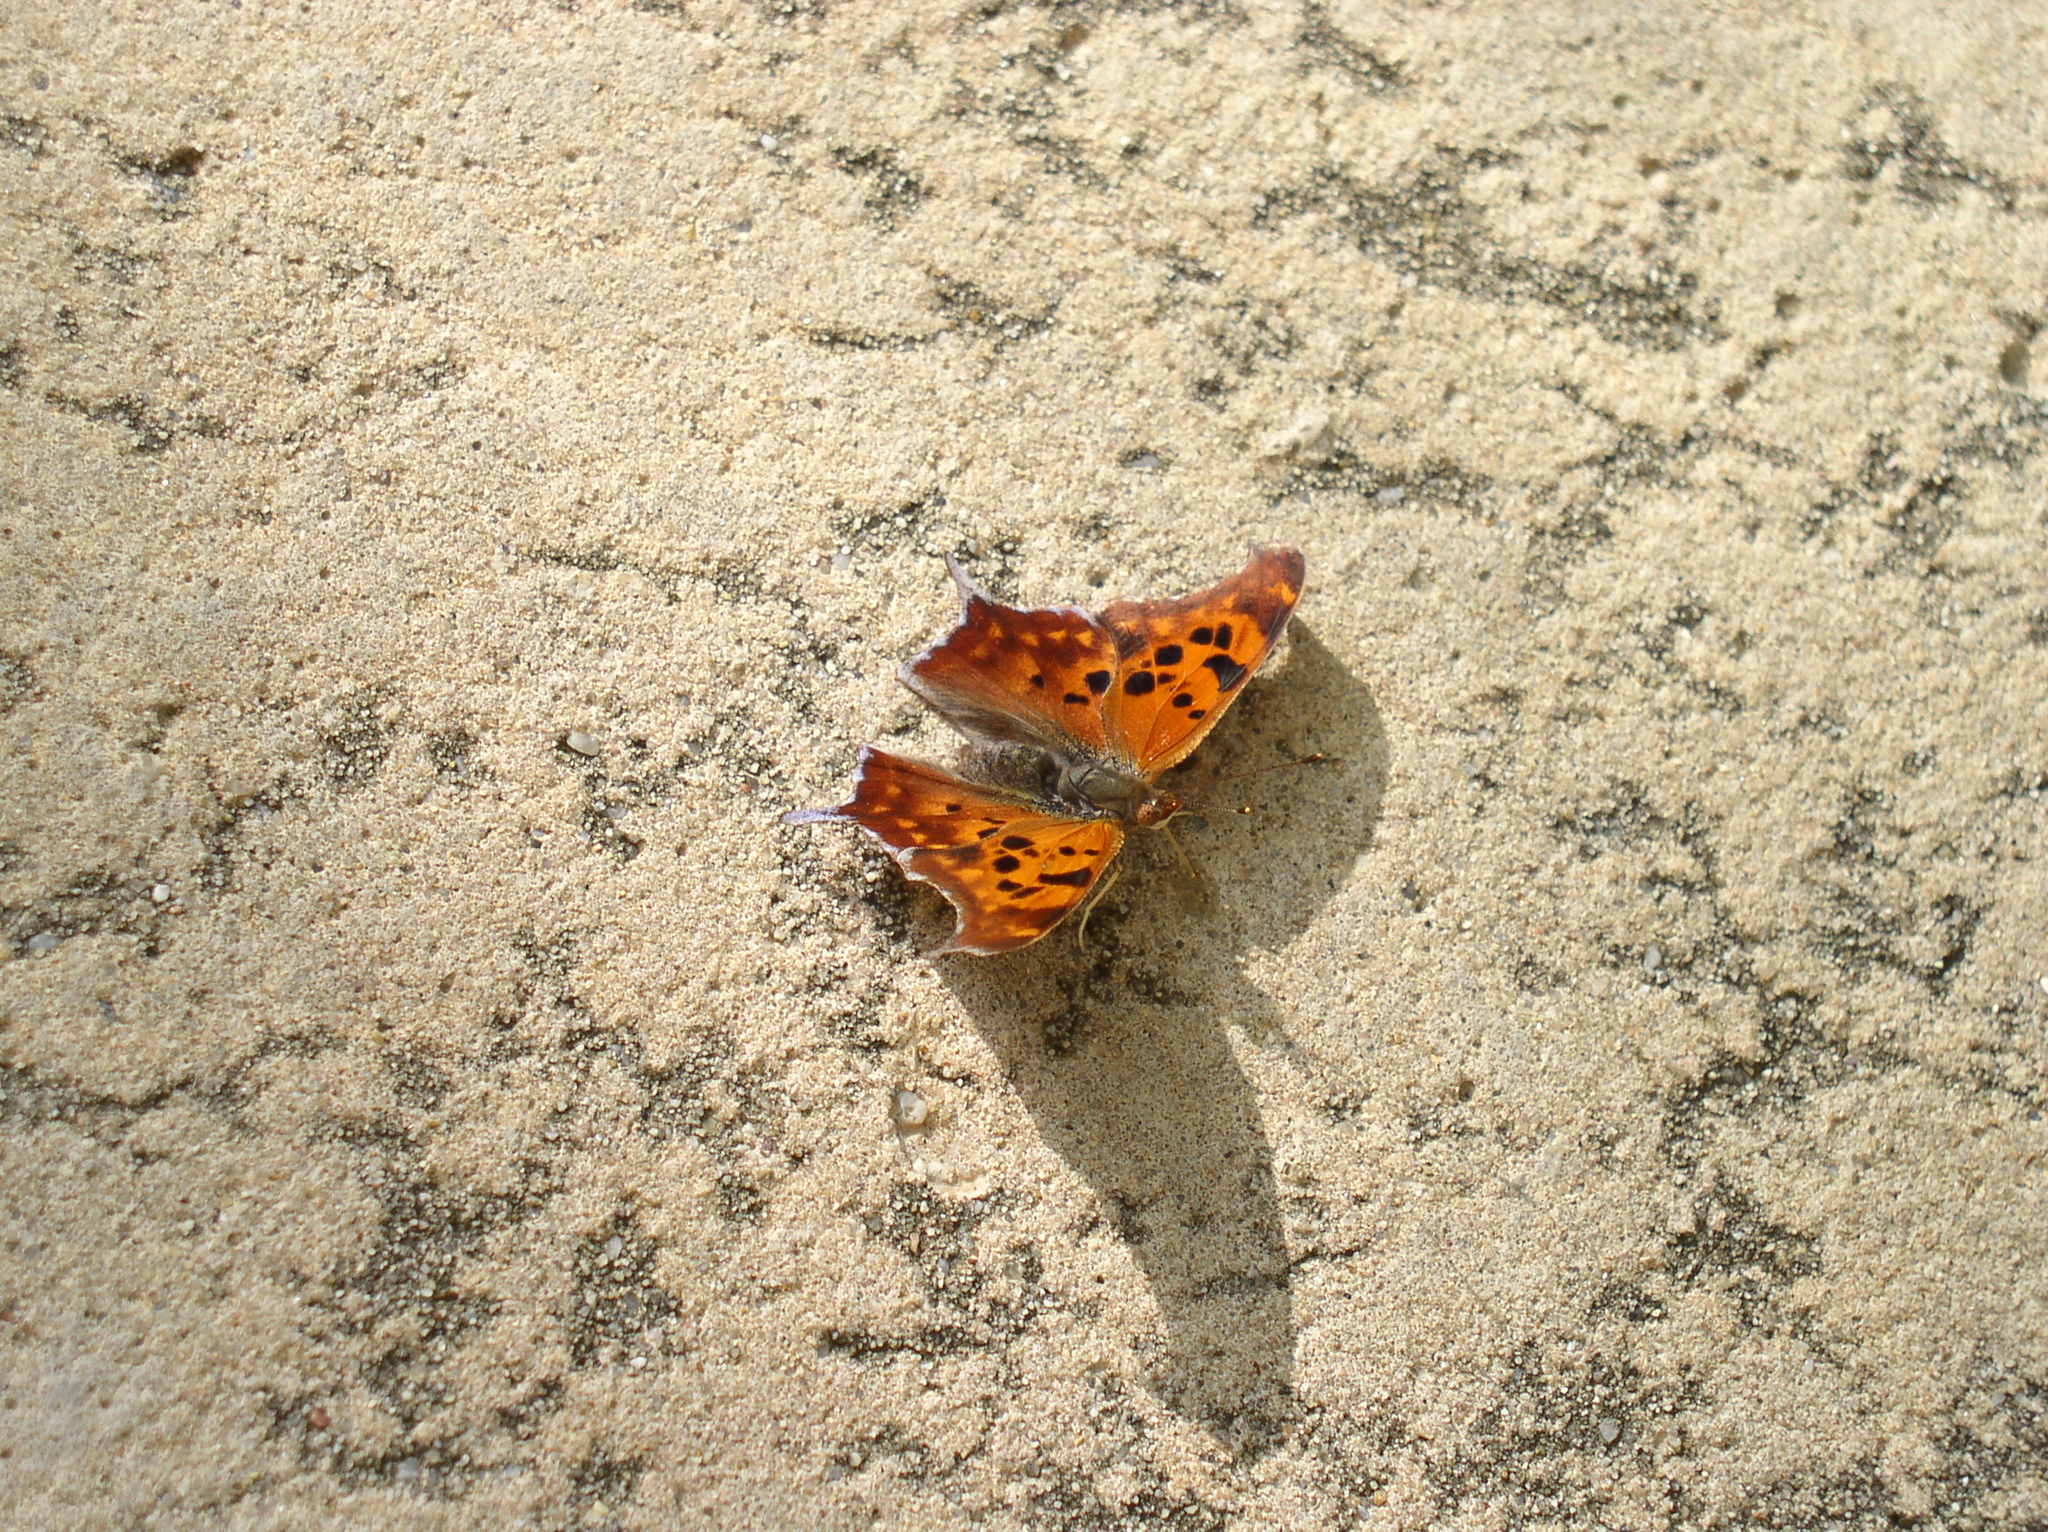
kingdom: Animalia
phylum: Arthropoda
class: Insecta
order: Lepidoptera
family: Nymphalidae
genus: Polygonia
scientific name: Polygonia interrogationis
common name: Question mark
